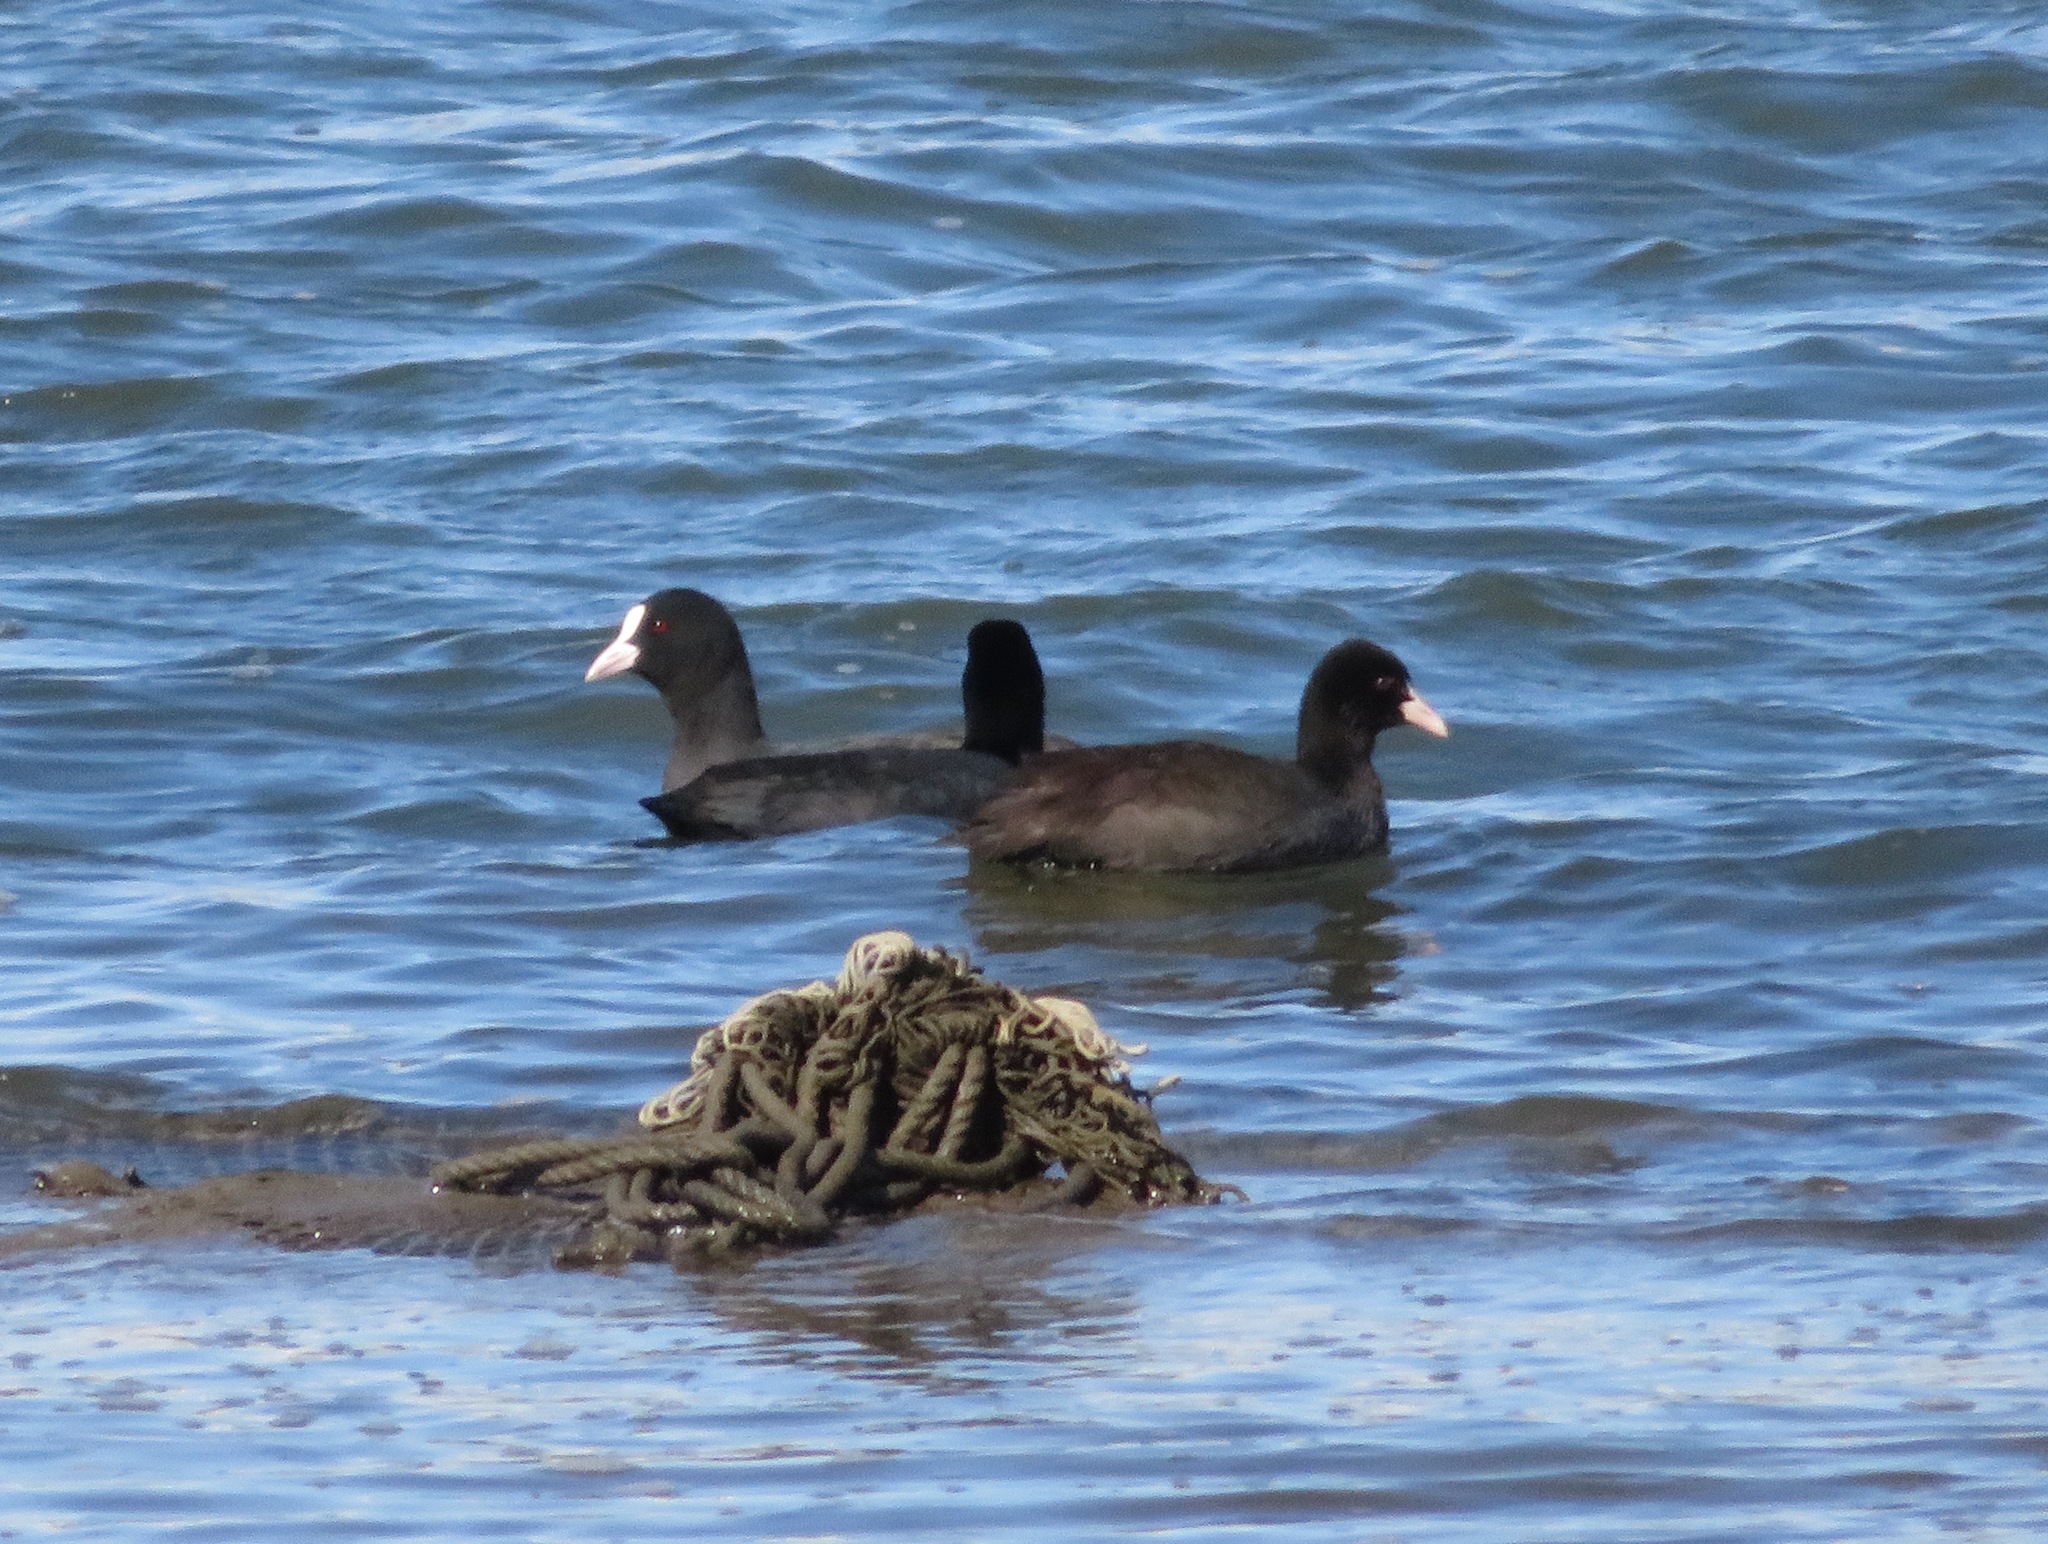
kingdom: Animalia
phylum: Chordata
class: Aves
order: Gruiformes
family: Rallidae
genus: Fulica
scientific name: Fulica atra
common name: Eurasian coot
